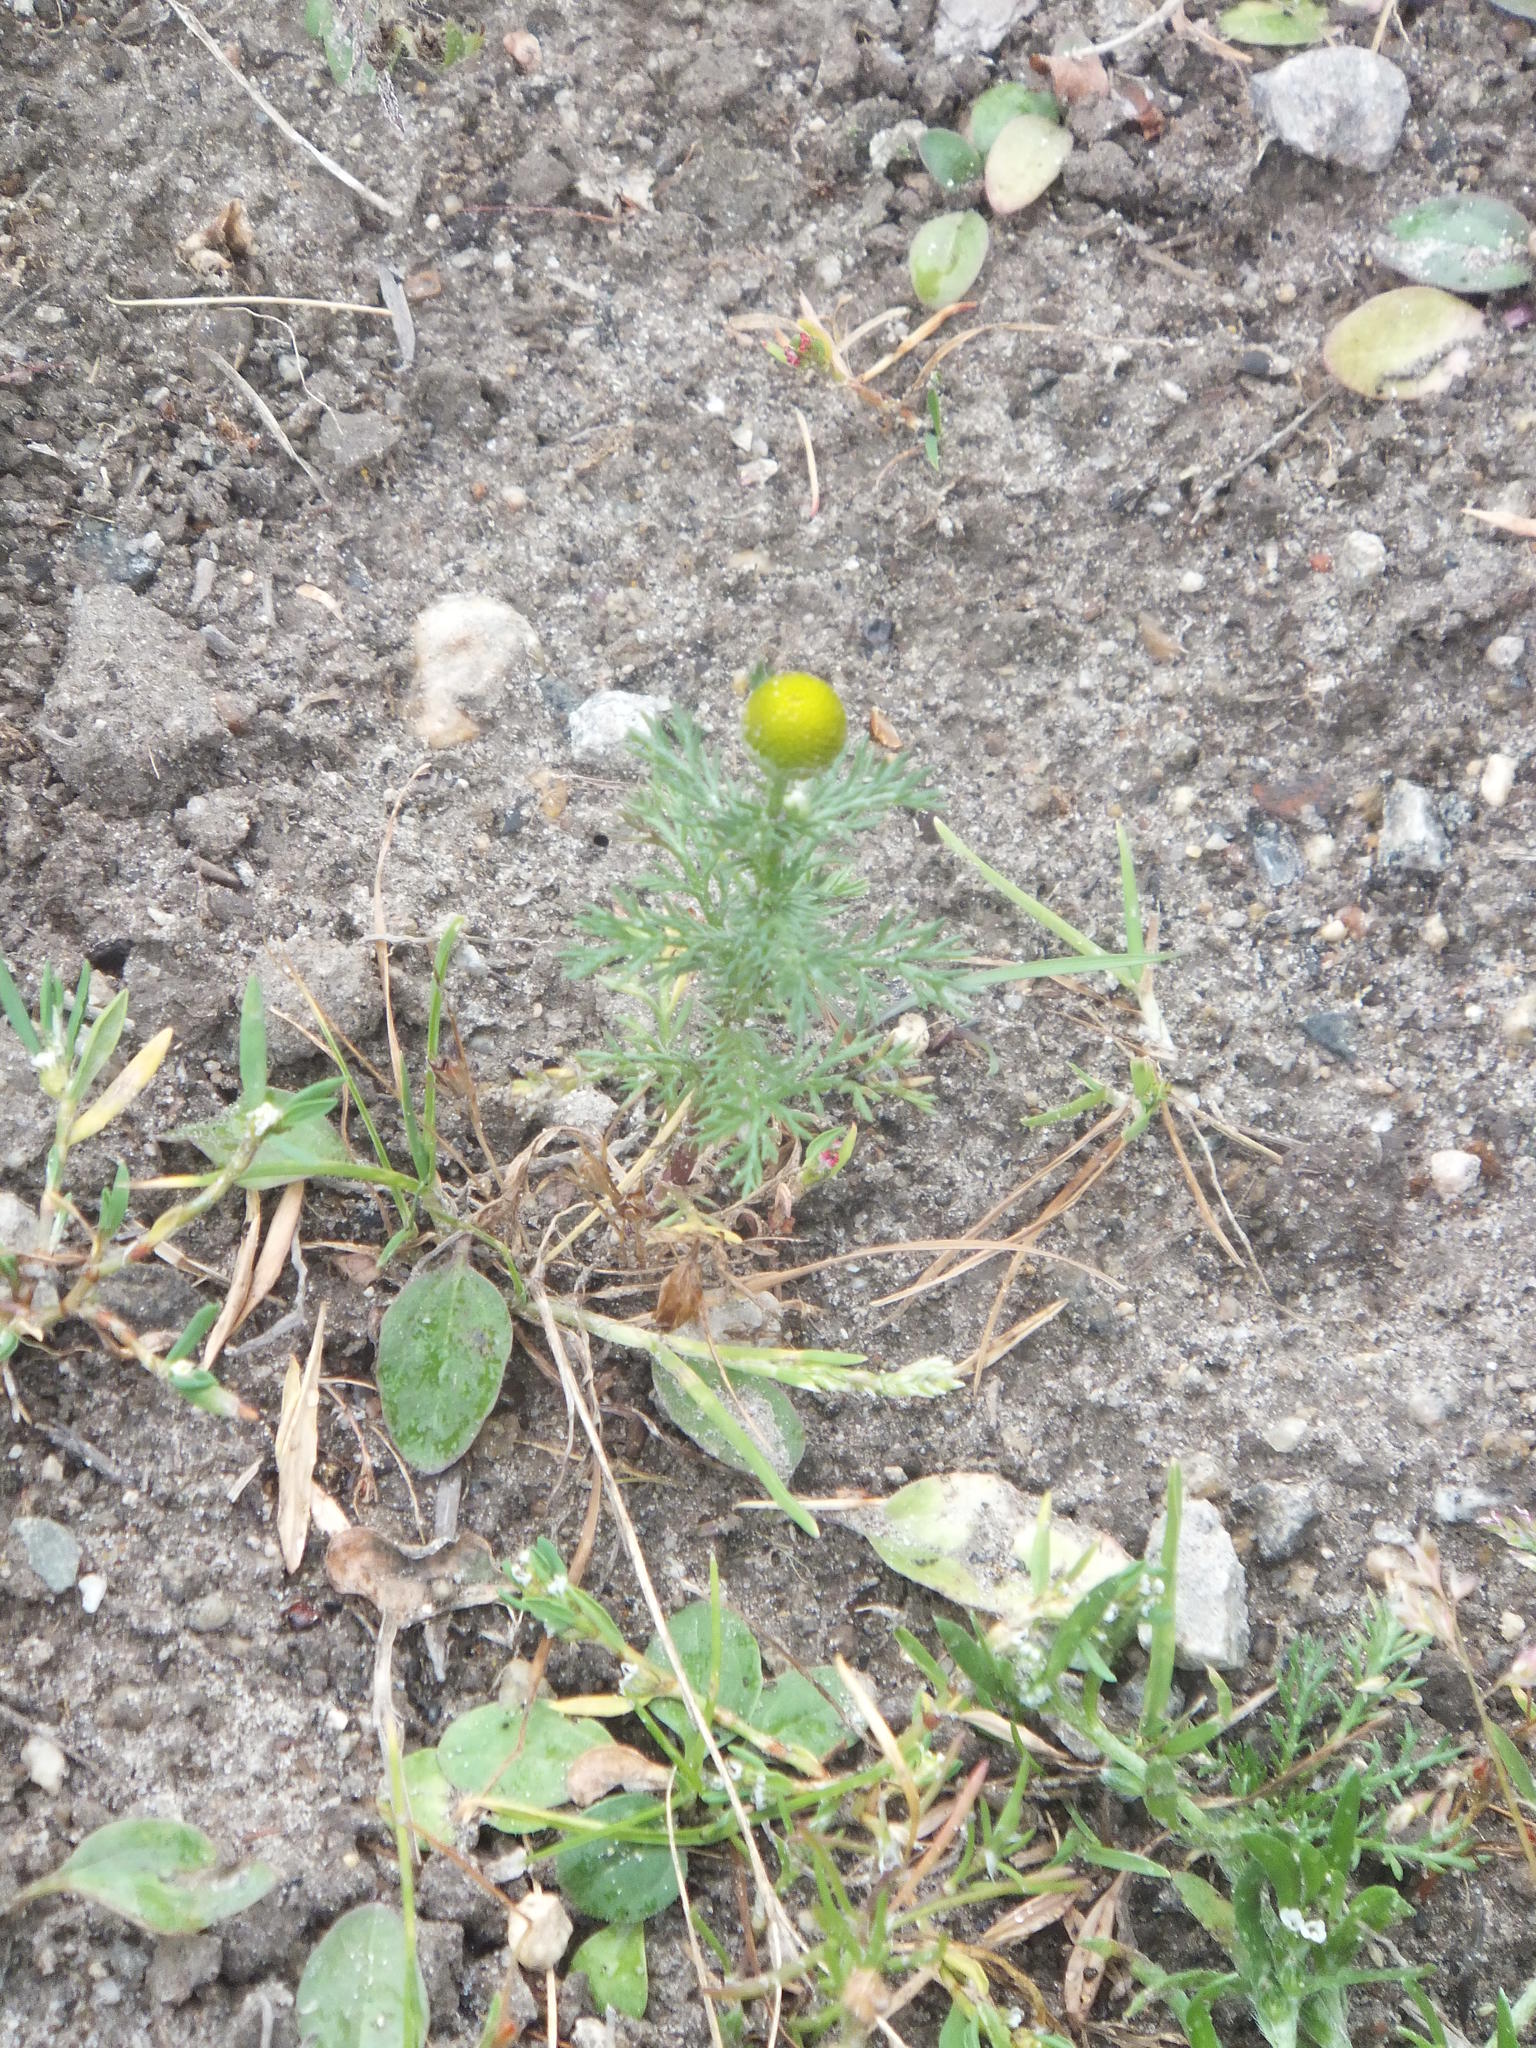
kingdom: Plantae
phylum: Tracheophyta
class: Magnoliopsida
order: Asterales
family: Asteraceae
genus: Matricaria
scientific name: Matricaria discoidea
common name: Disc mayweed
